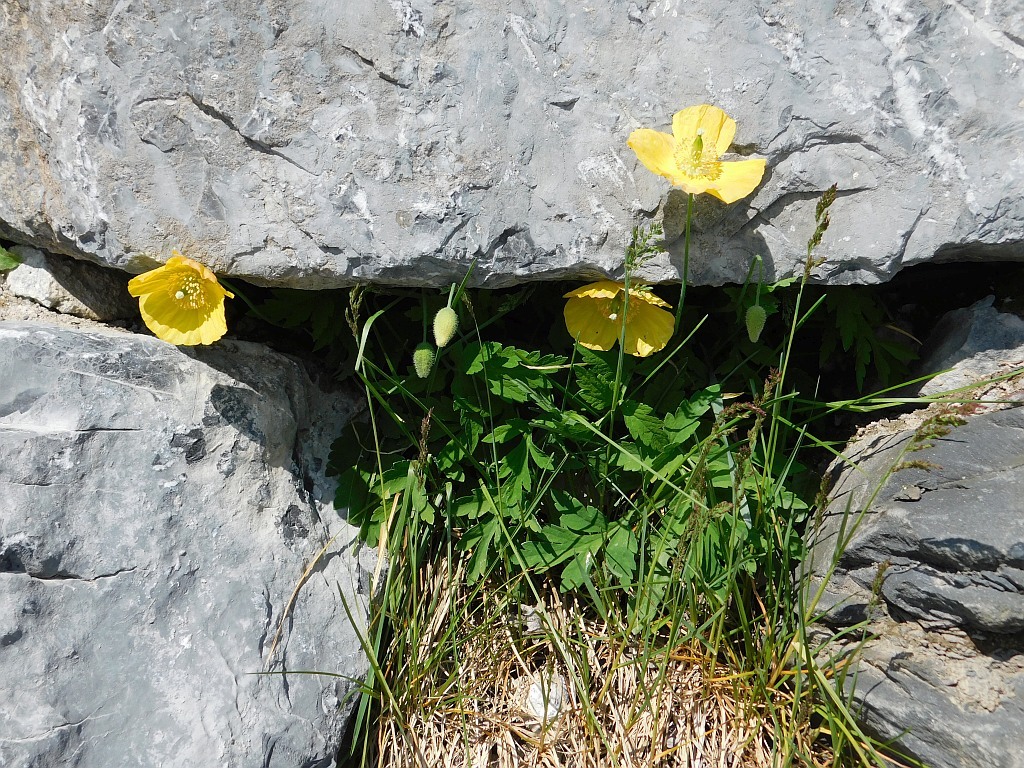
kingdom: Plantae
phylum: Tracheophyta
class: Magnoliopsida
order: Ranunculales
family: Papaveraceae
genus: Papaver
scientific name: Papaver cambricum
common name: Poppy
